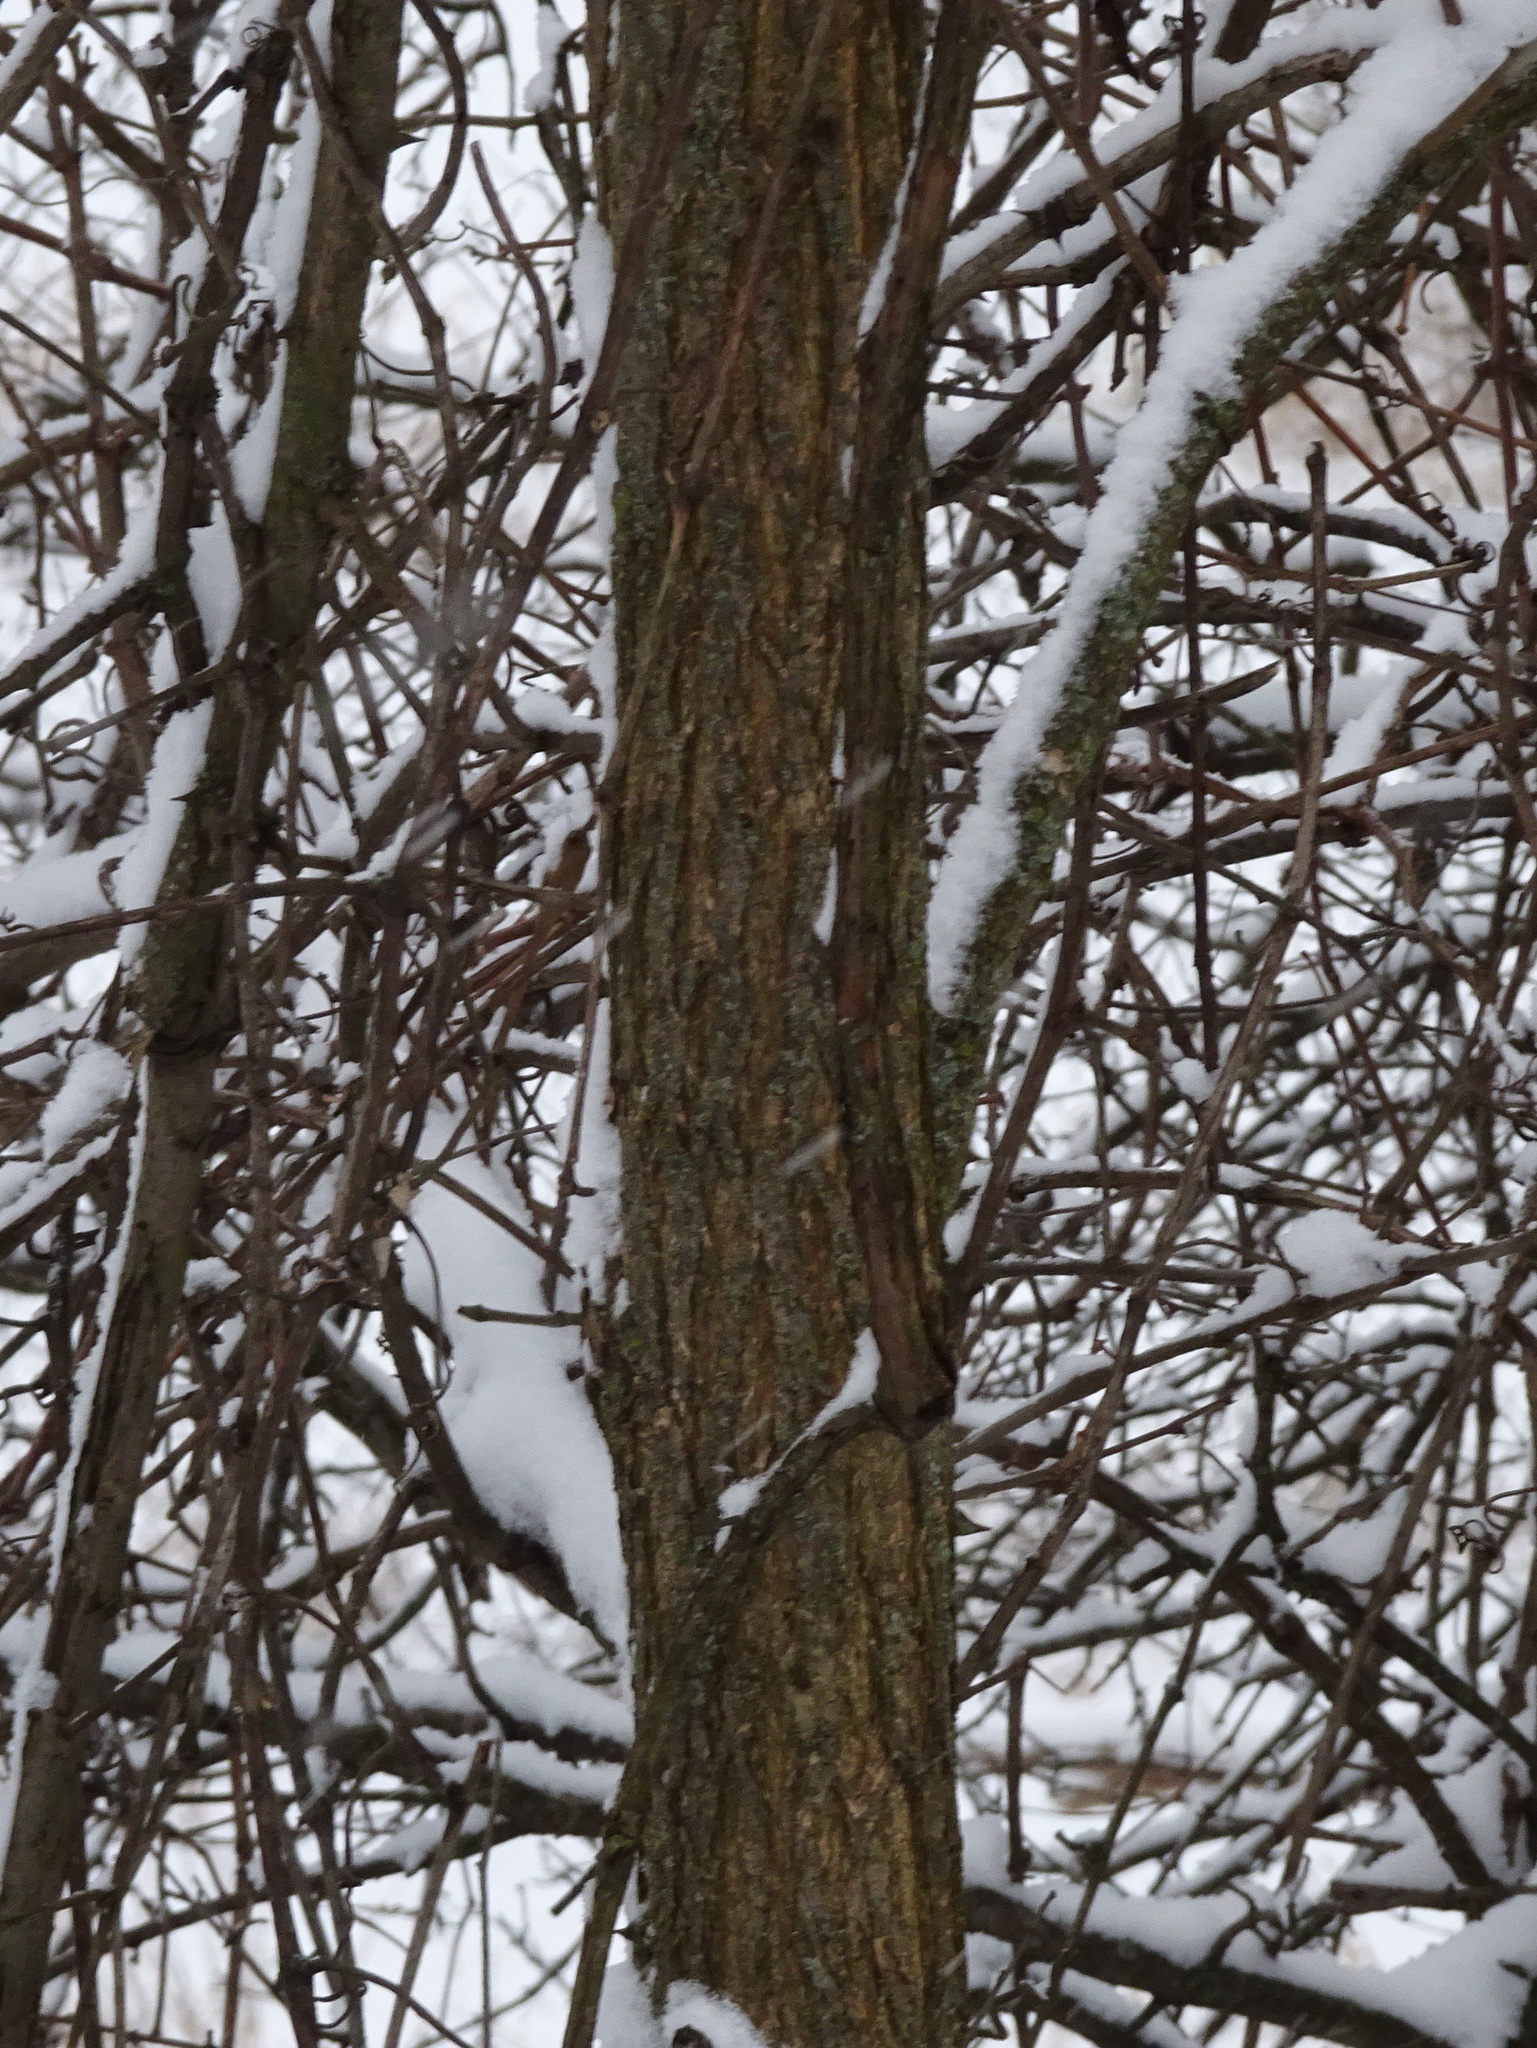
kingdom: Plantae
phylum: Tracheophyta
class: Magnoliopsida
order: Fabales
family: Fabaceae
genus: Robinia
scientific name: Robinia pseudoacacia
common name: Black locust
